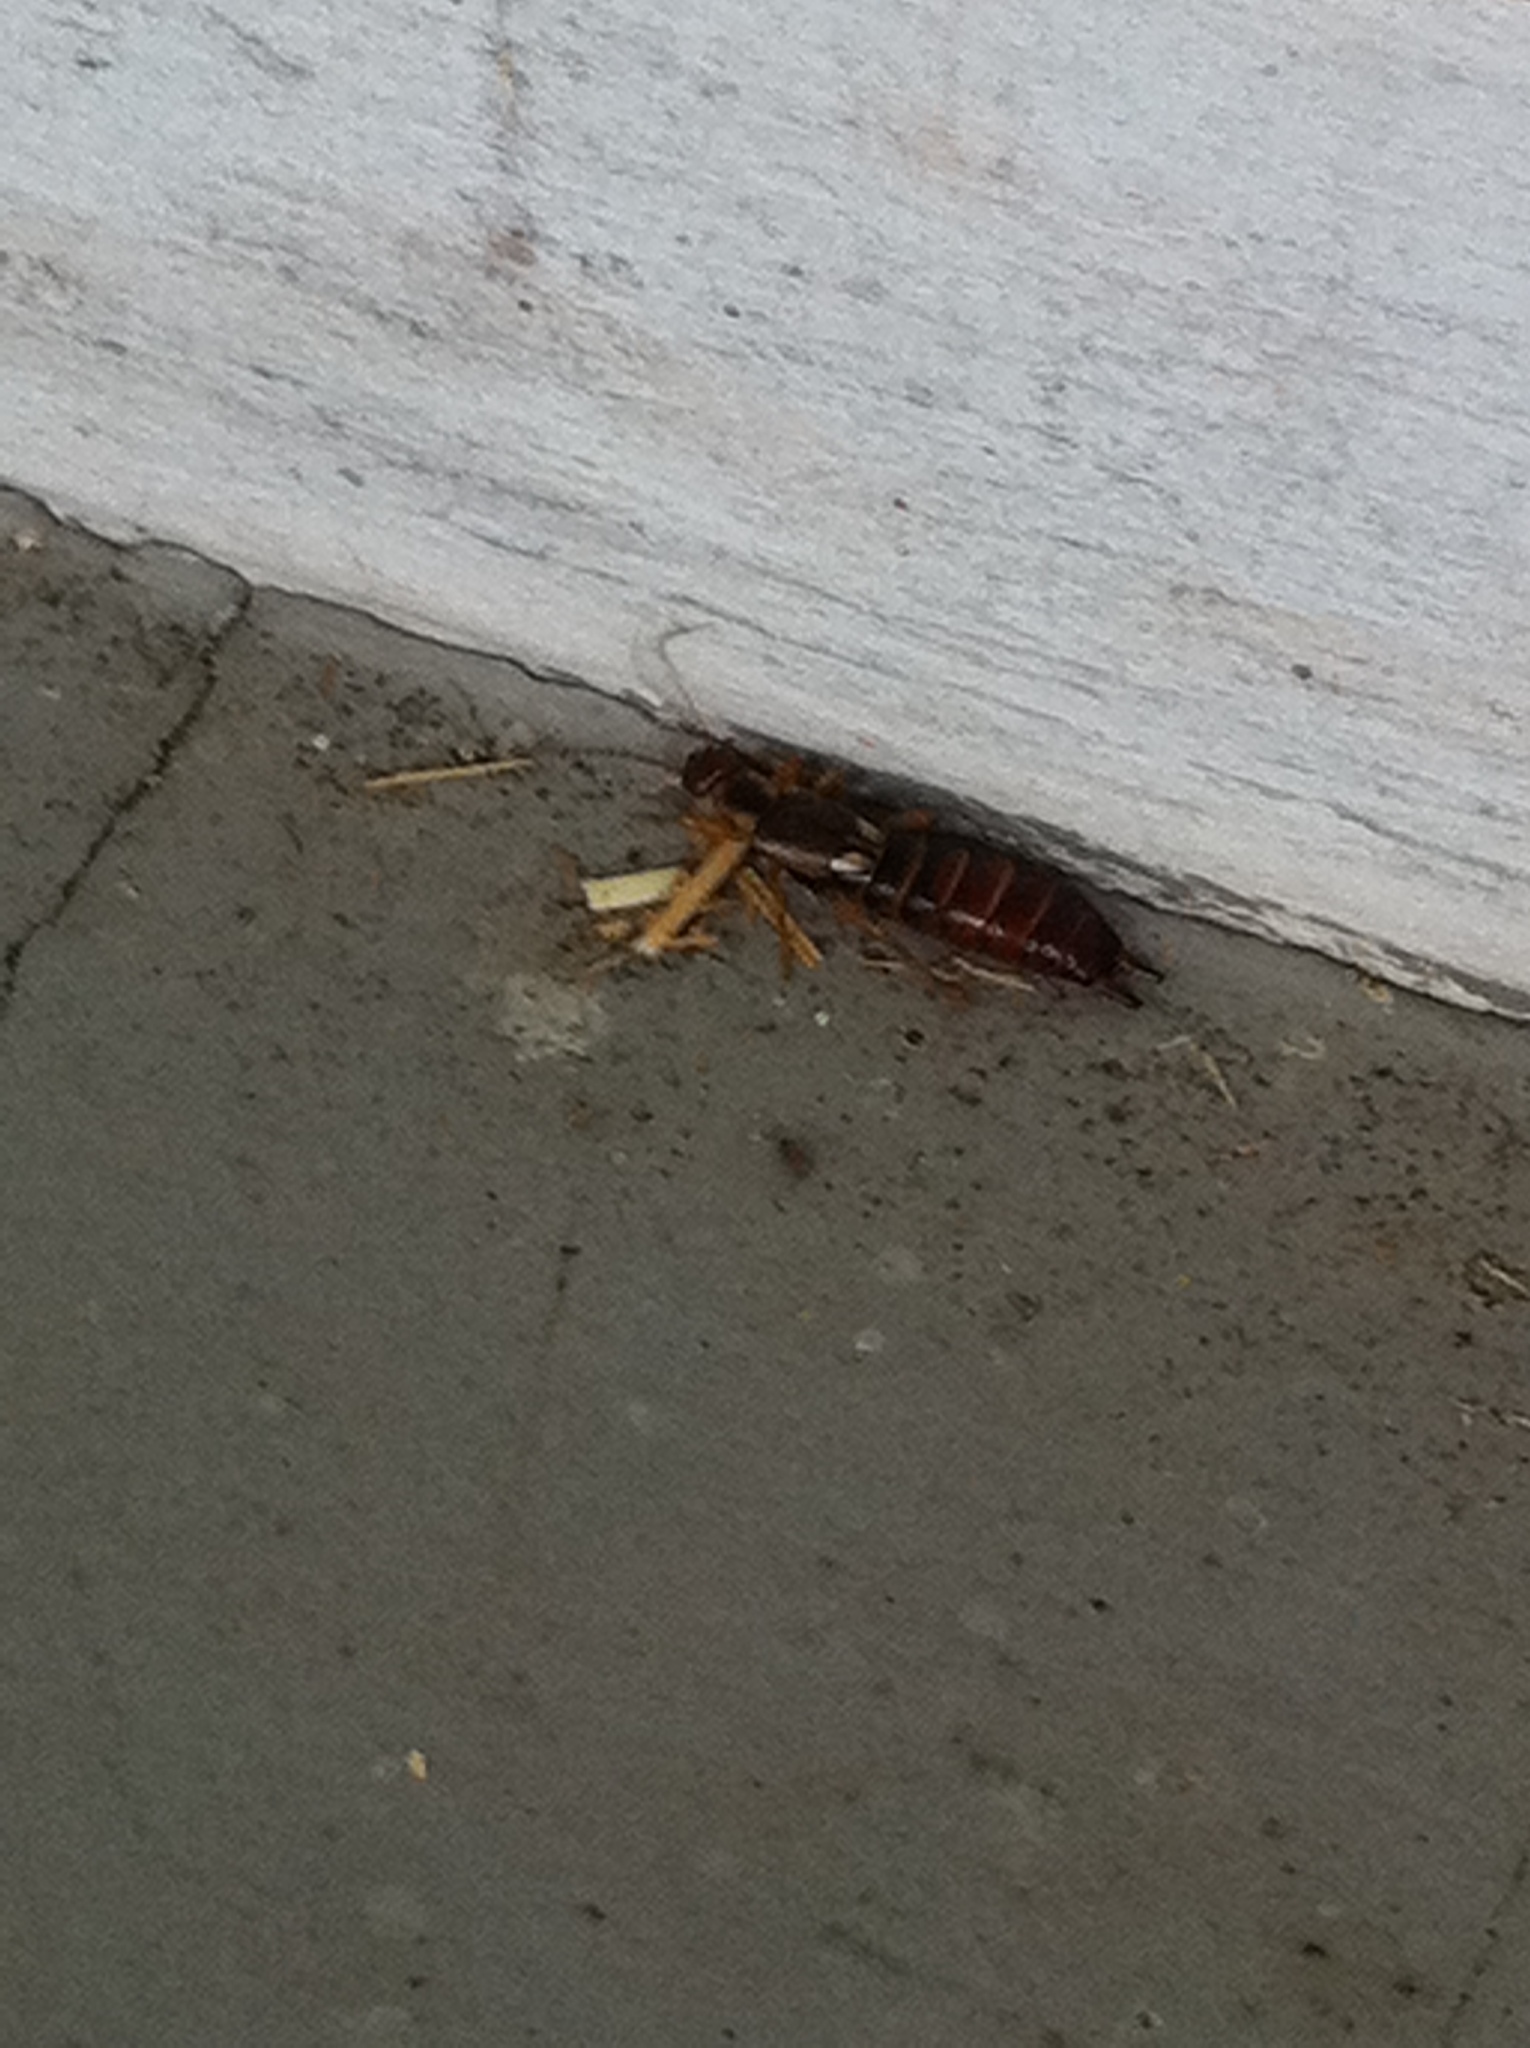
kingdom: Animalia
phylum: Arthropoda
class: Insecta
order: Dermaptera
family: Forficulidae
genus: Forficula
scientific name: Forficula
